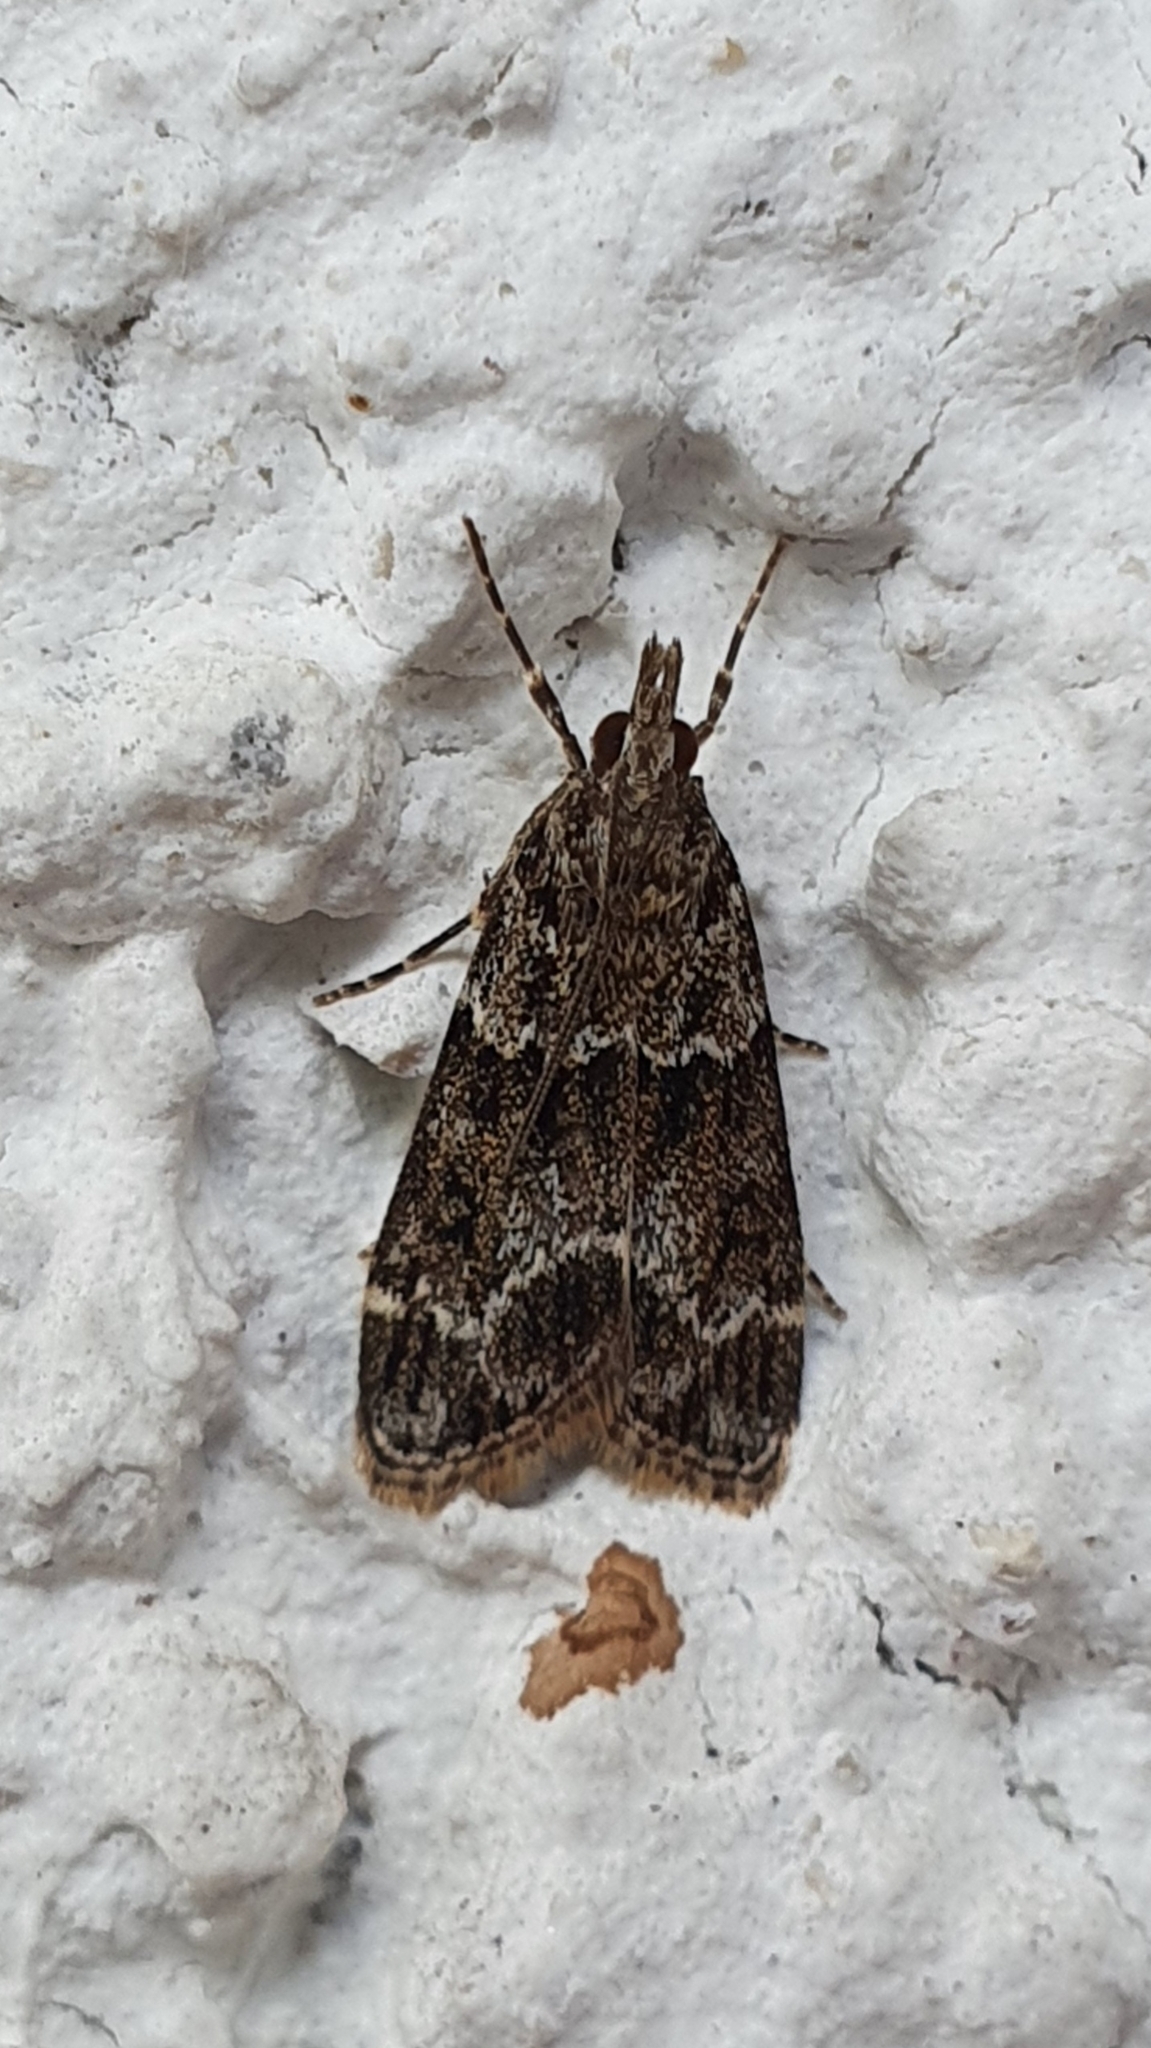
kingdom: Animalia
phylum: Arthropoda
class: Insecta
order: Lepidoptera
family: Crambidae
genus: Eudonia
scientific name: Eudonia mercurella
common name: Small grey
